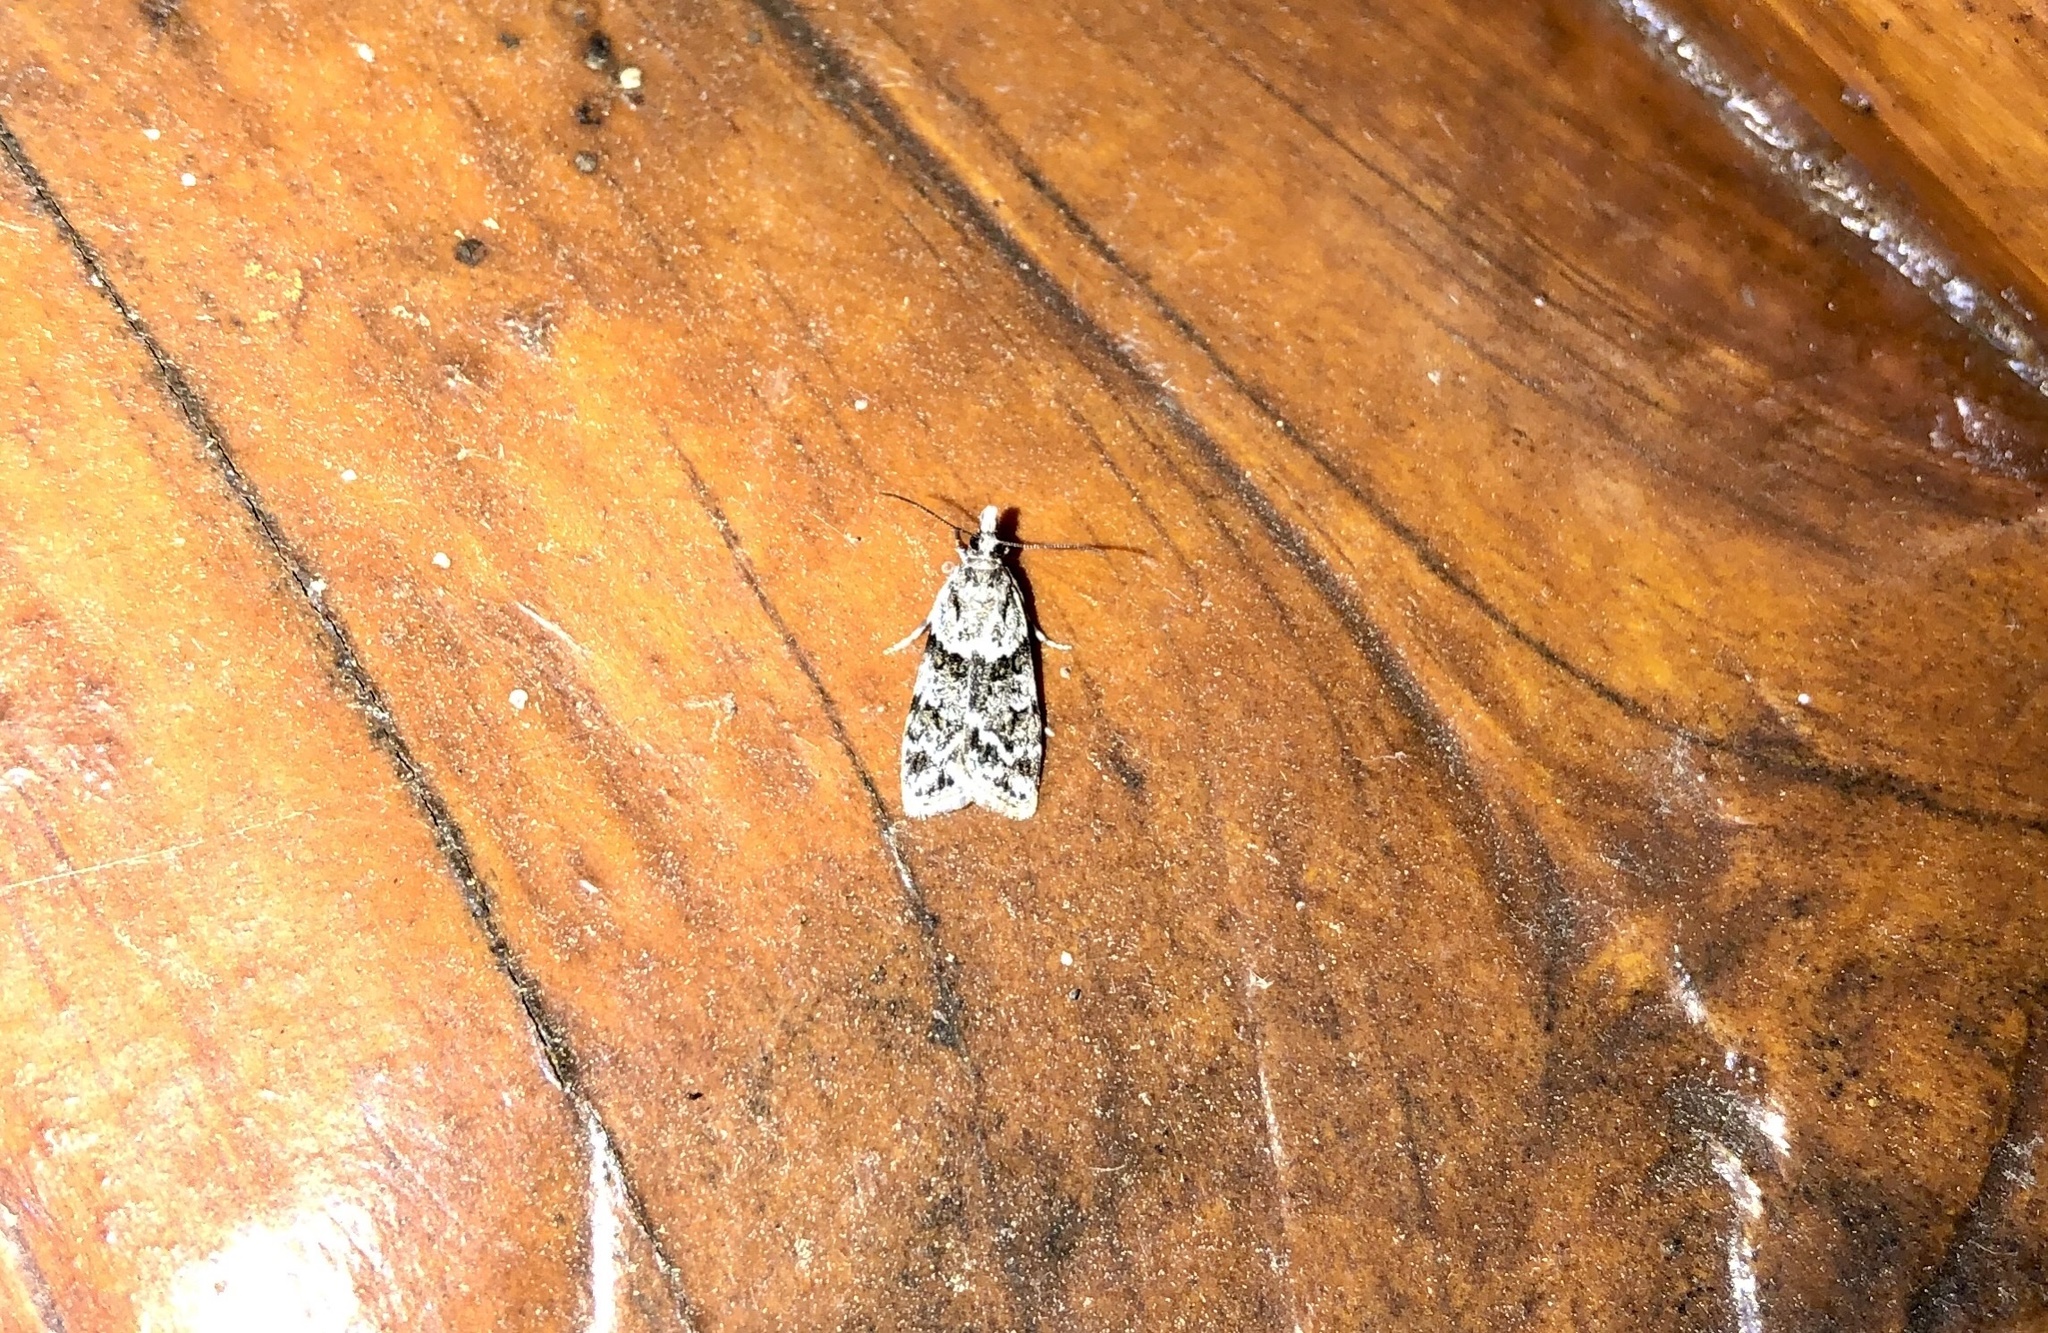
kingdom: Animalia
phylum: Arthropoda
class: Insecta
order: Lepidoptera
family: Crambidae
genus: Scoparia
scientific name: Scoparia biplagialis
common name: Double-striped scoparia moth
